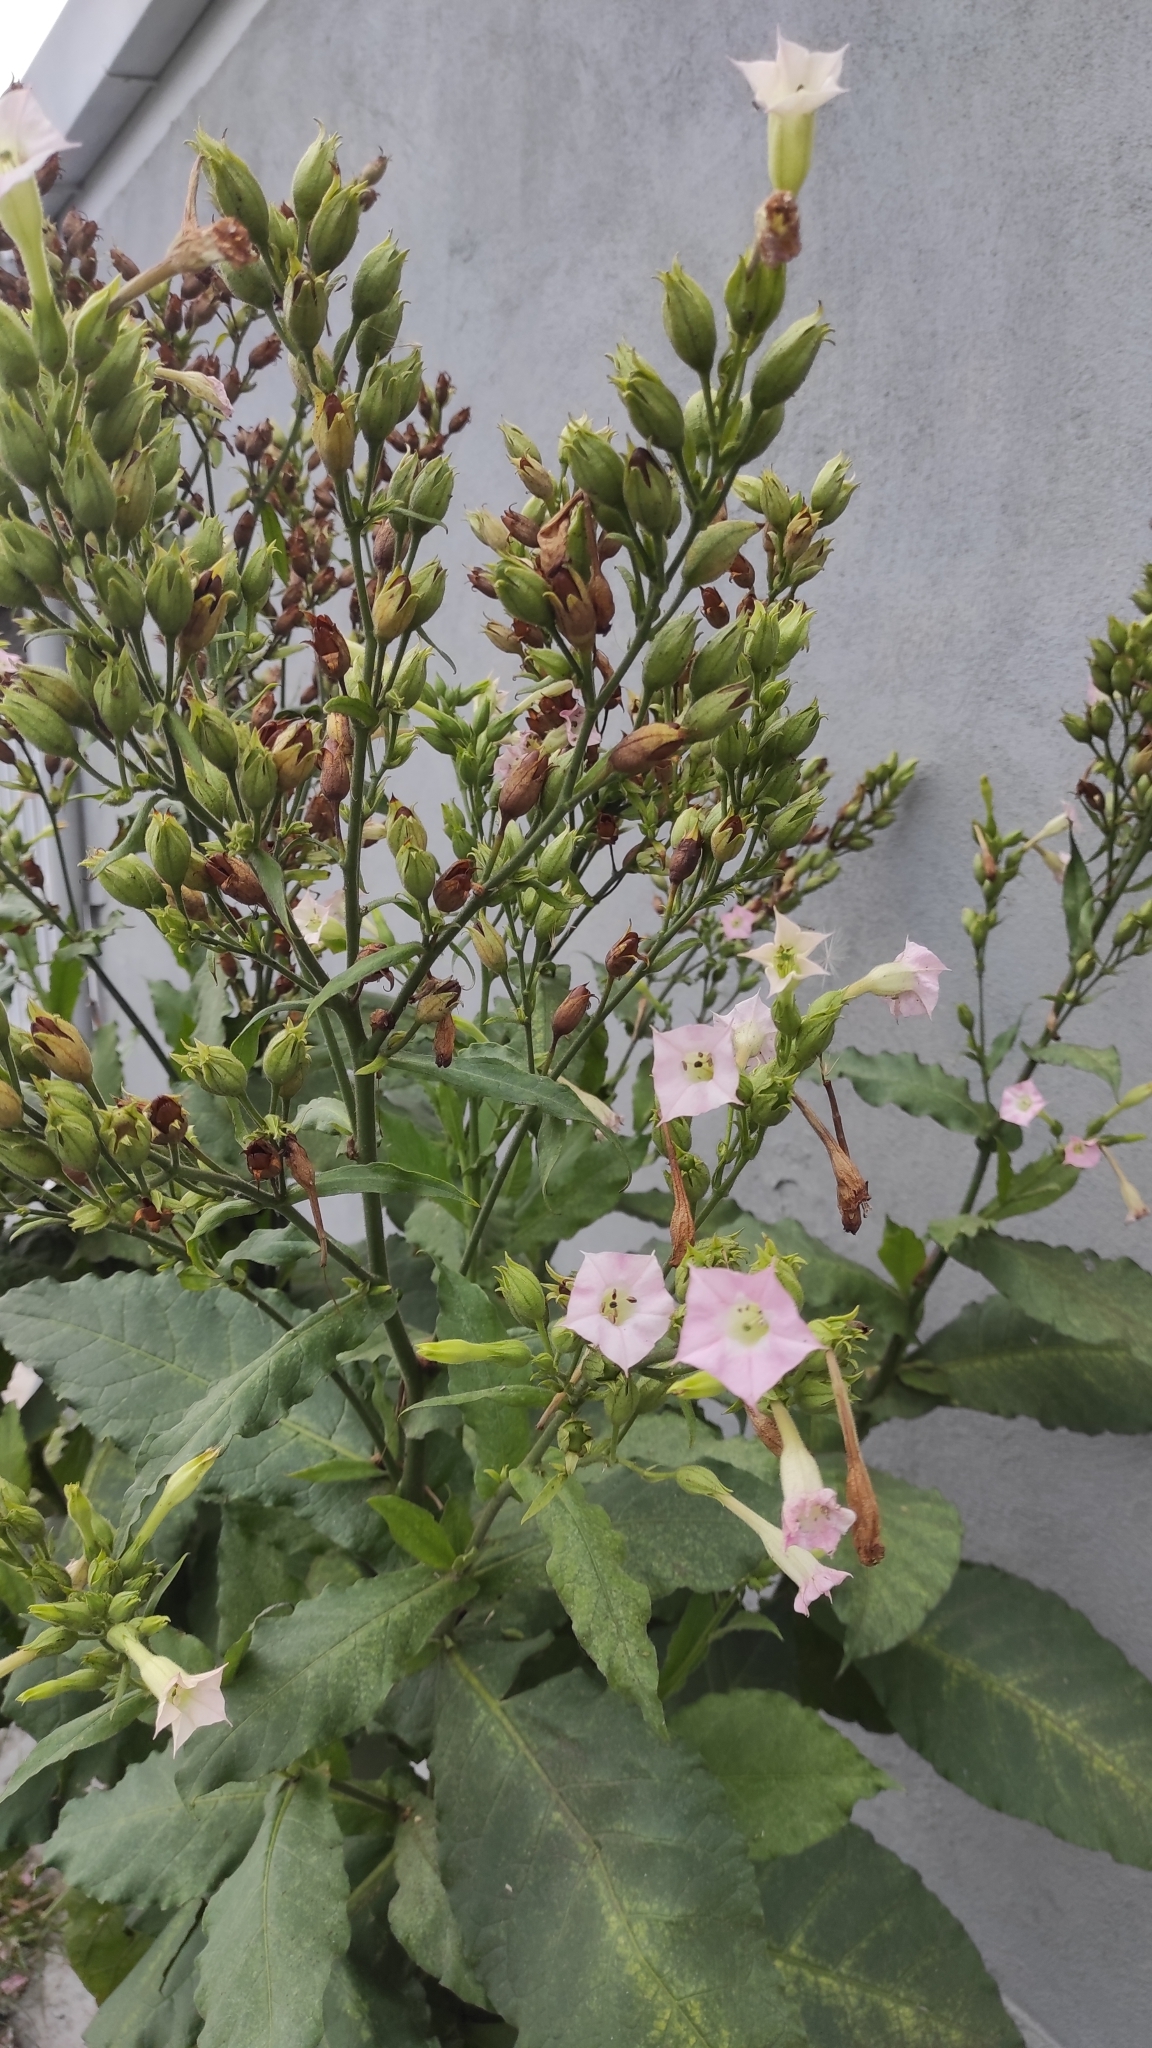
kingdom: Plantae
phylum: Tracheophyta
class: Magnoliopsida
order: Solanales
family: Solanaceae
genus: Nicotiana
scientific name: Nicotiana tabacum
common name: Tobacco
